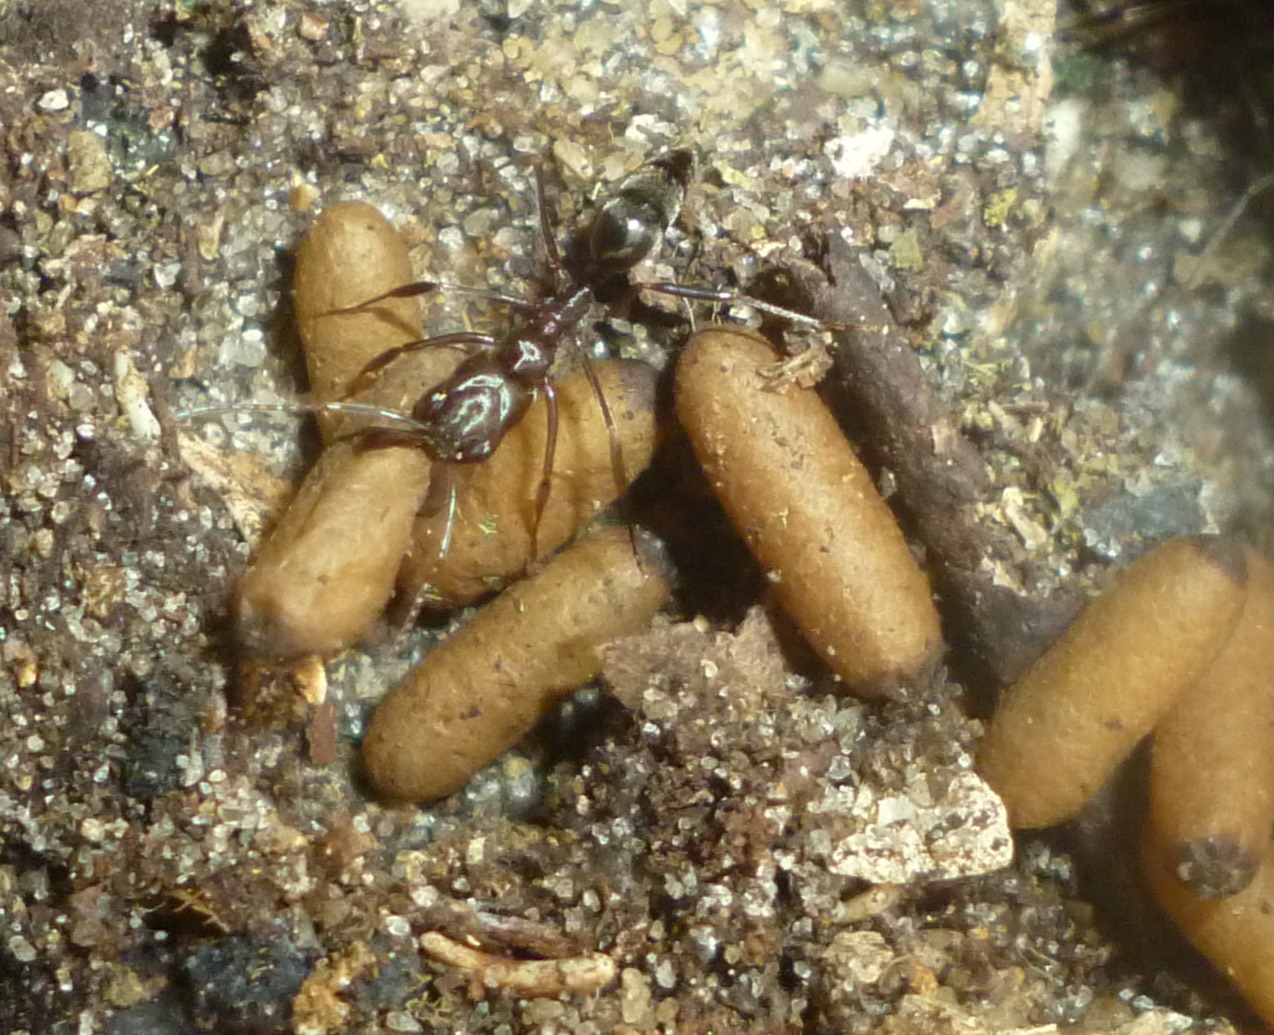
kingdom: Animalia
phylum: Arthropoda
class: Insecta
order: Hymenoptera
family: Formicidae
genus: Odontomachus
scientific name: Odontomachus brunneus
